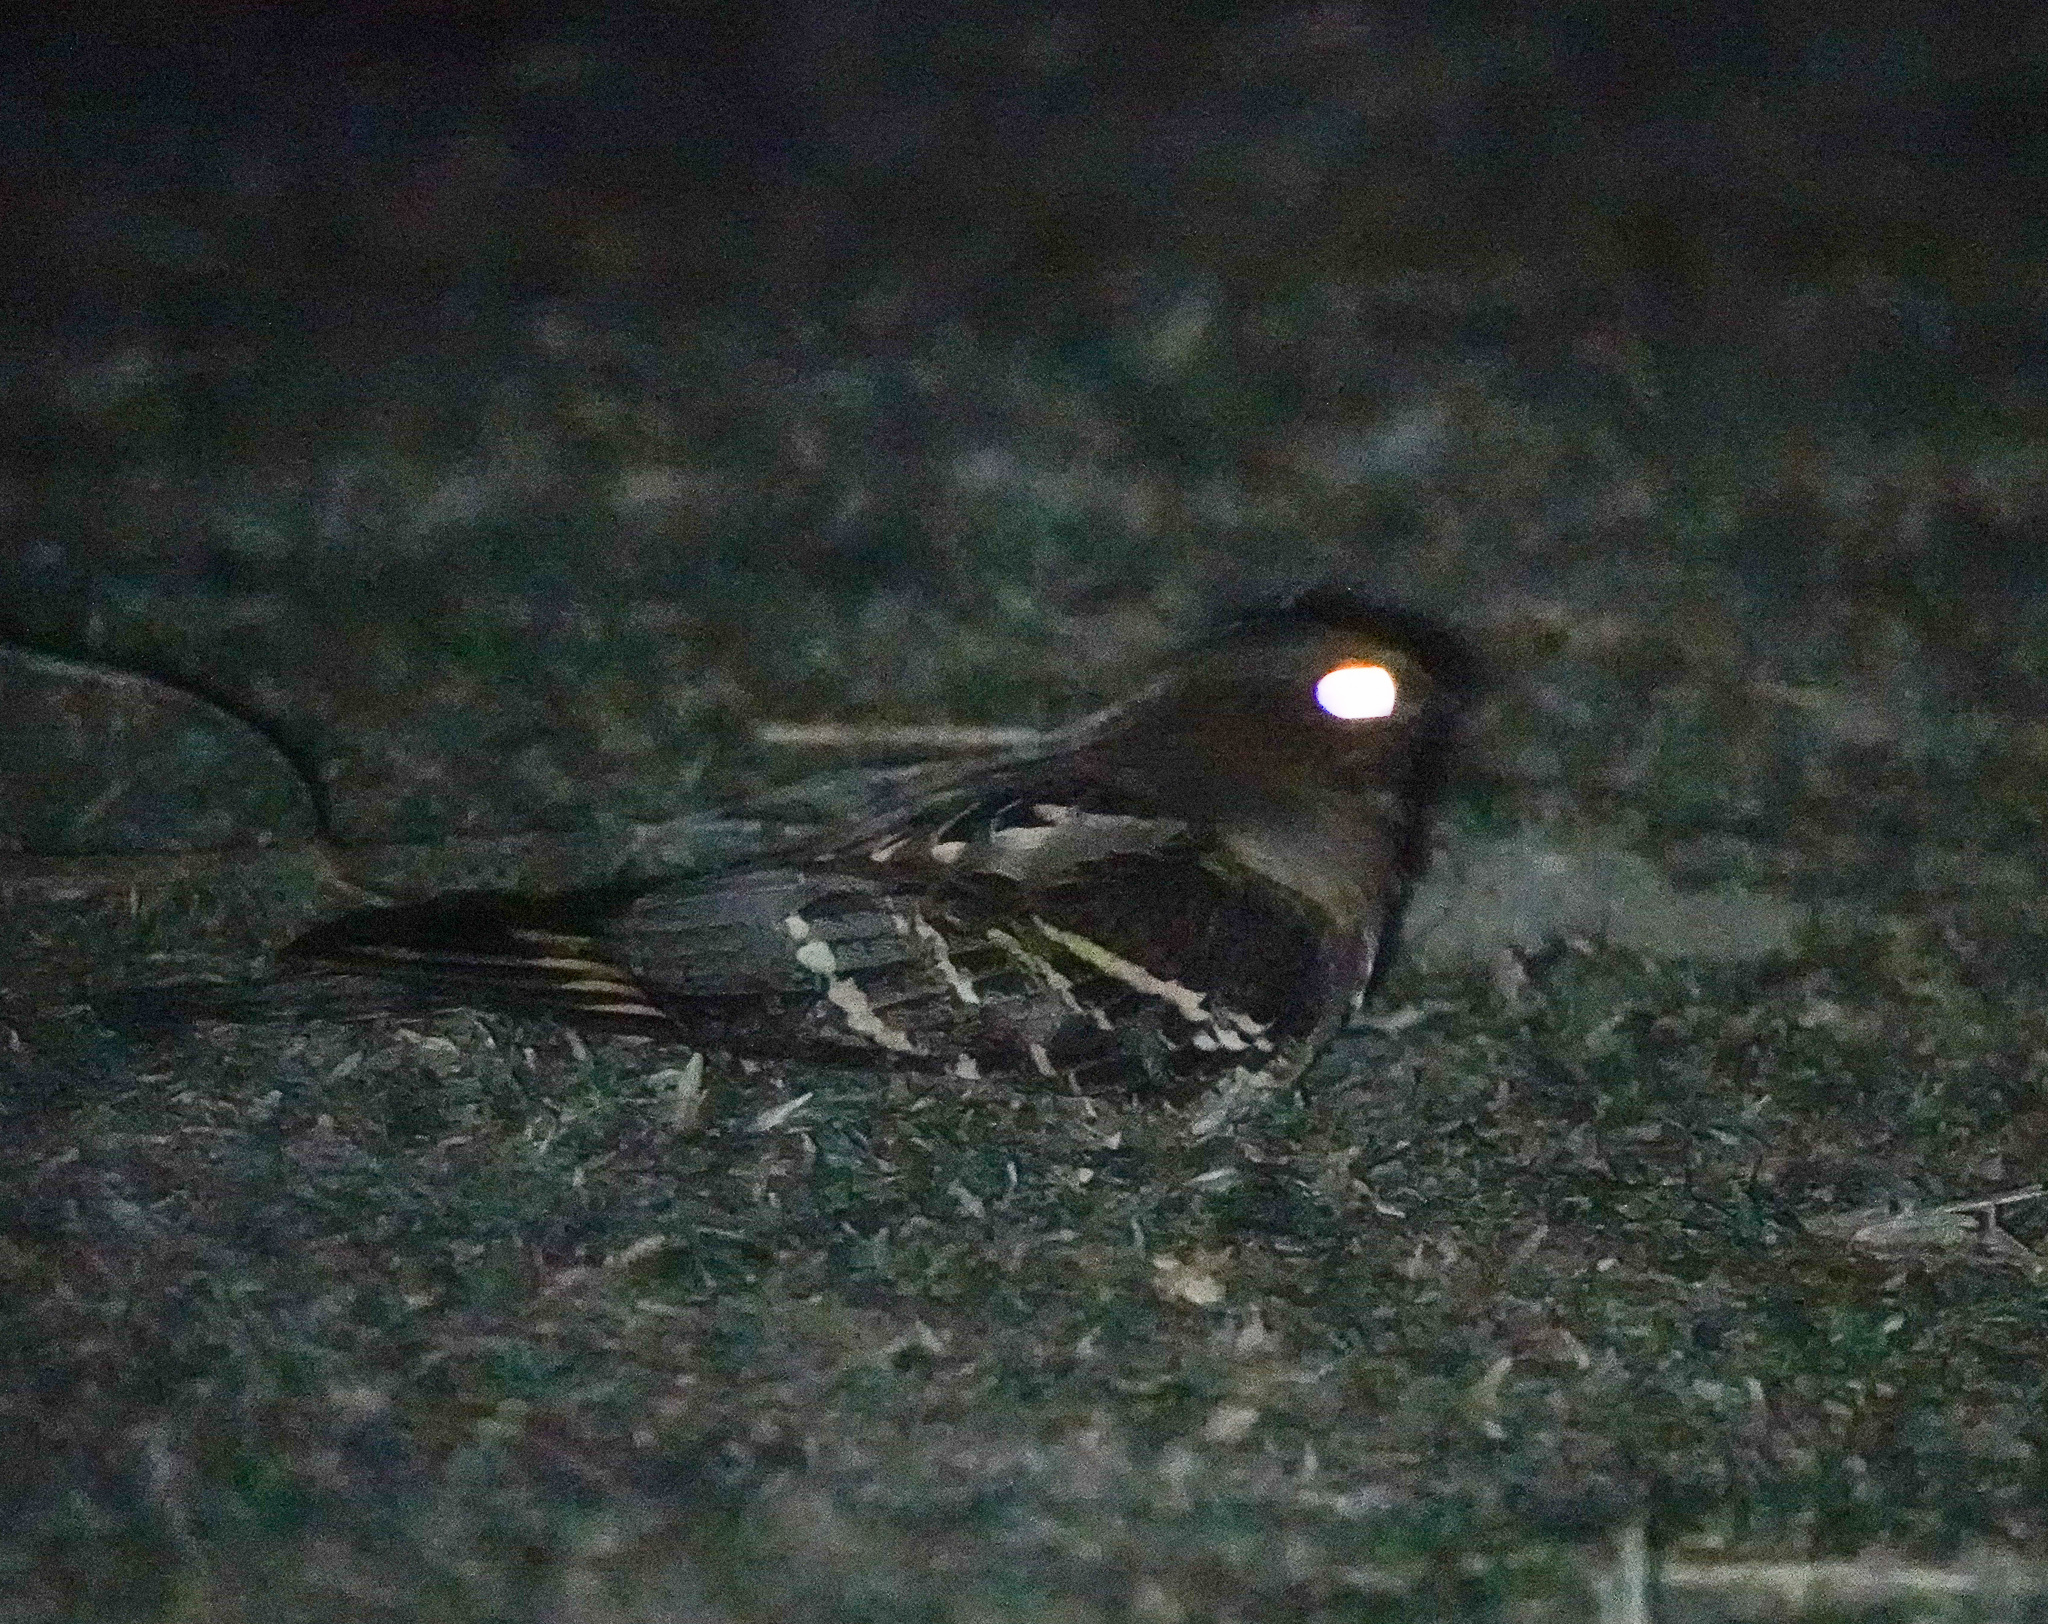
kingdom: Animalia
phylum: Chordata
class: Aves
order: Caprimulgiformes
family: Caprimulgidae
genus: Caprimulgus
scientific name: Caprimulgus macrurus
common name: Large-tailed nightjar
